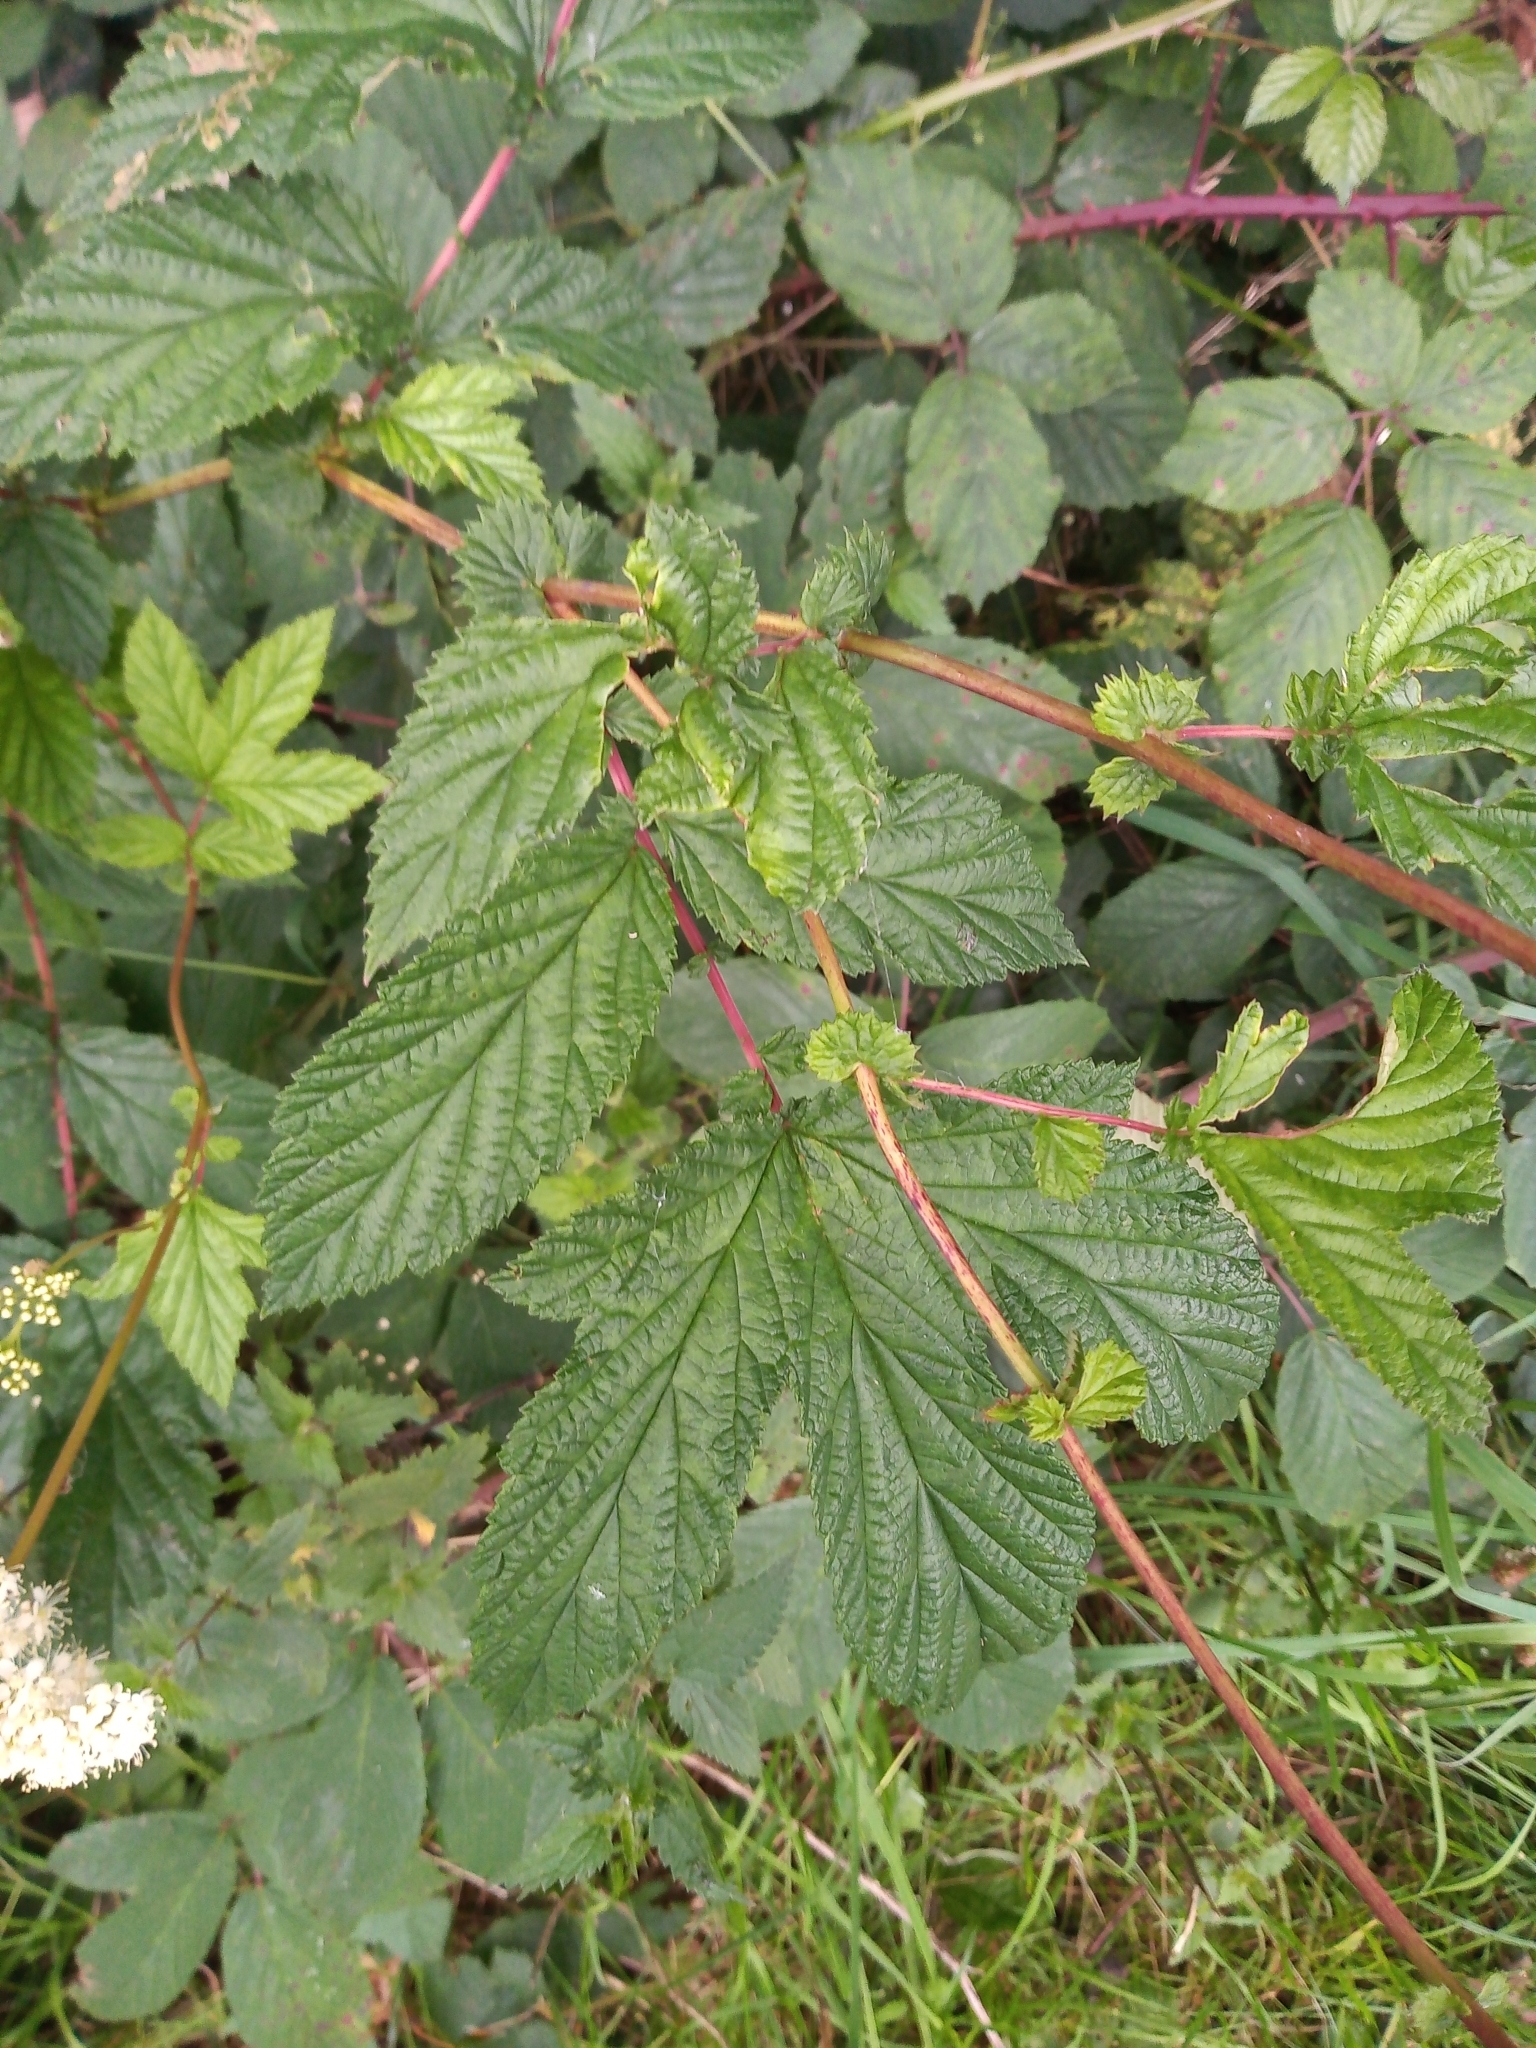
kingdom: Plantae
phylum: Tracheophyta
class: Magnoliopsida
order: Rosales
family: Rosaceae
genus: Filipendula
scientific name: Filipendula ulmaria
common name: Meadowsweet
